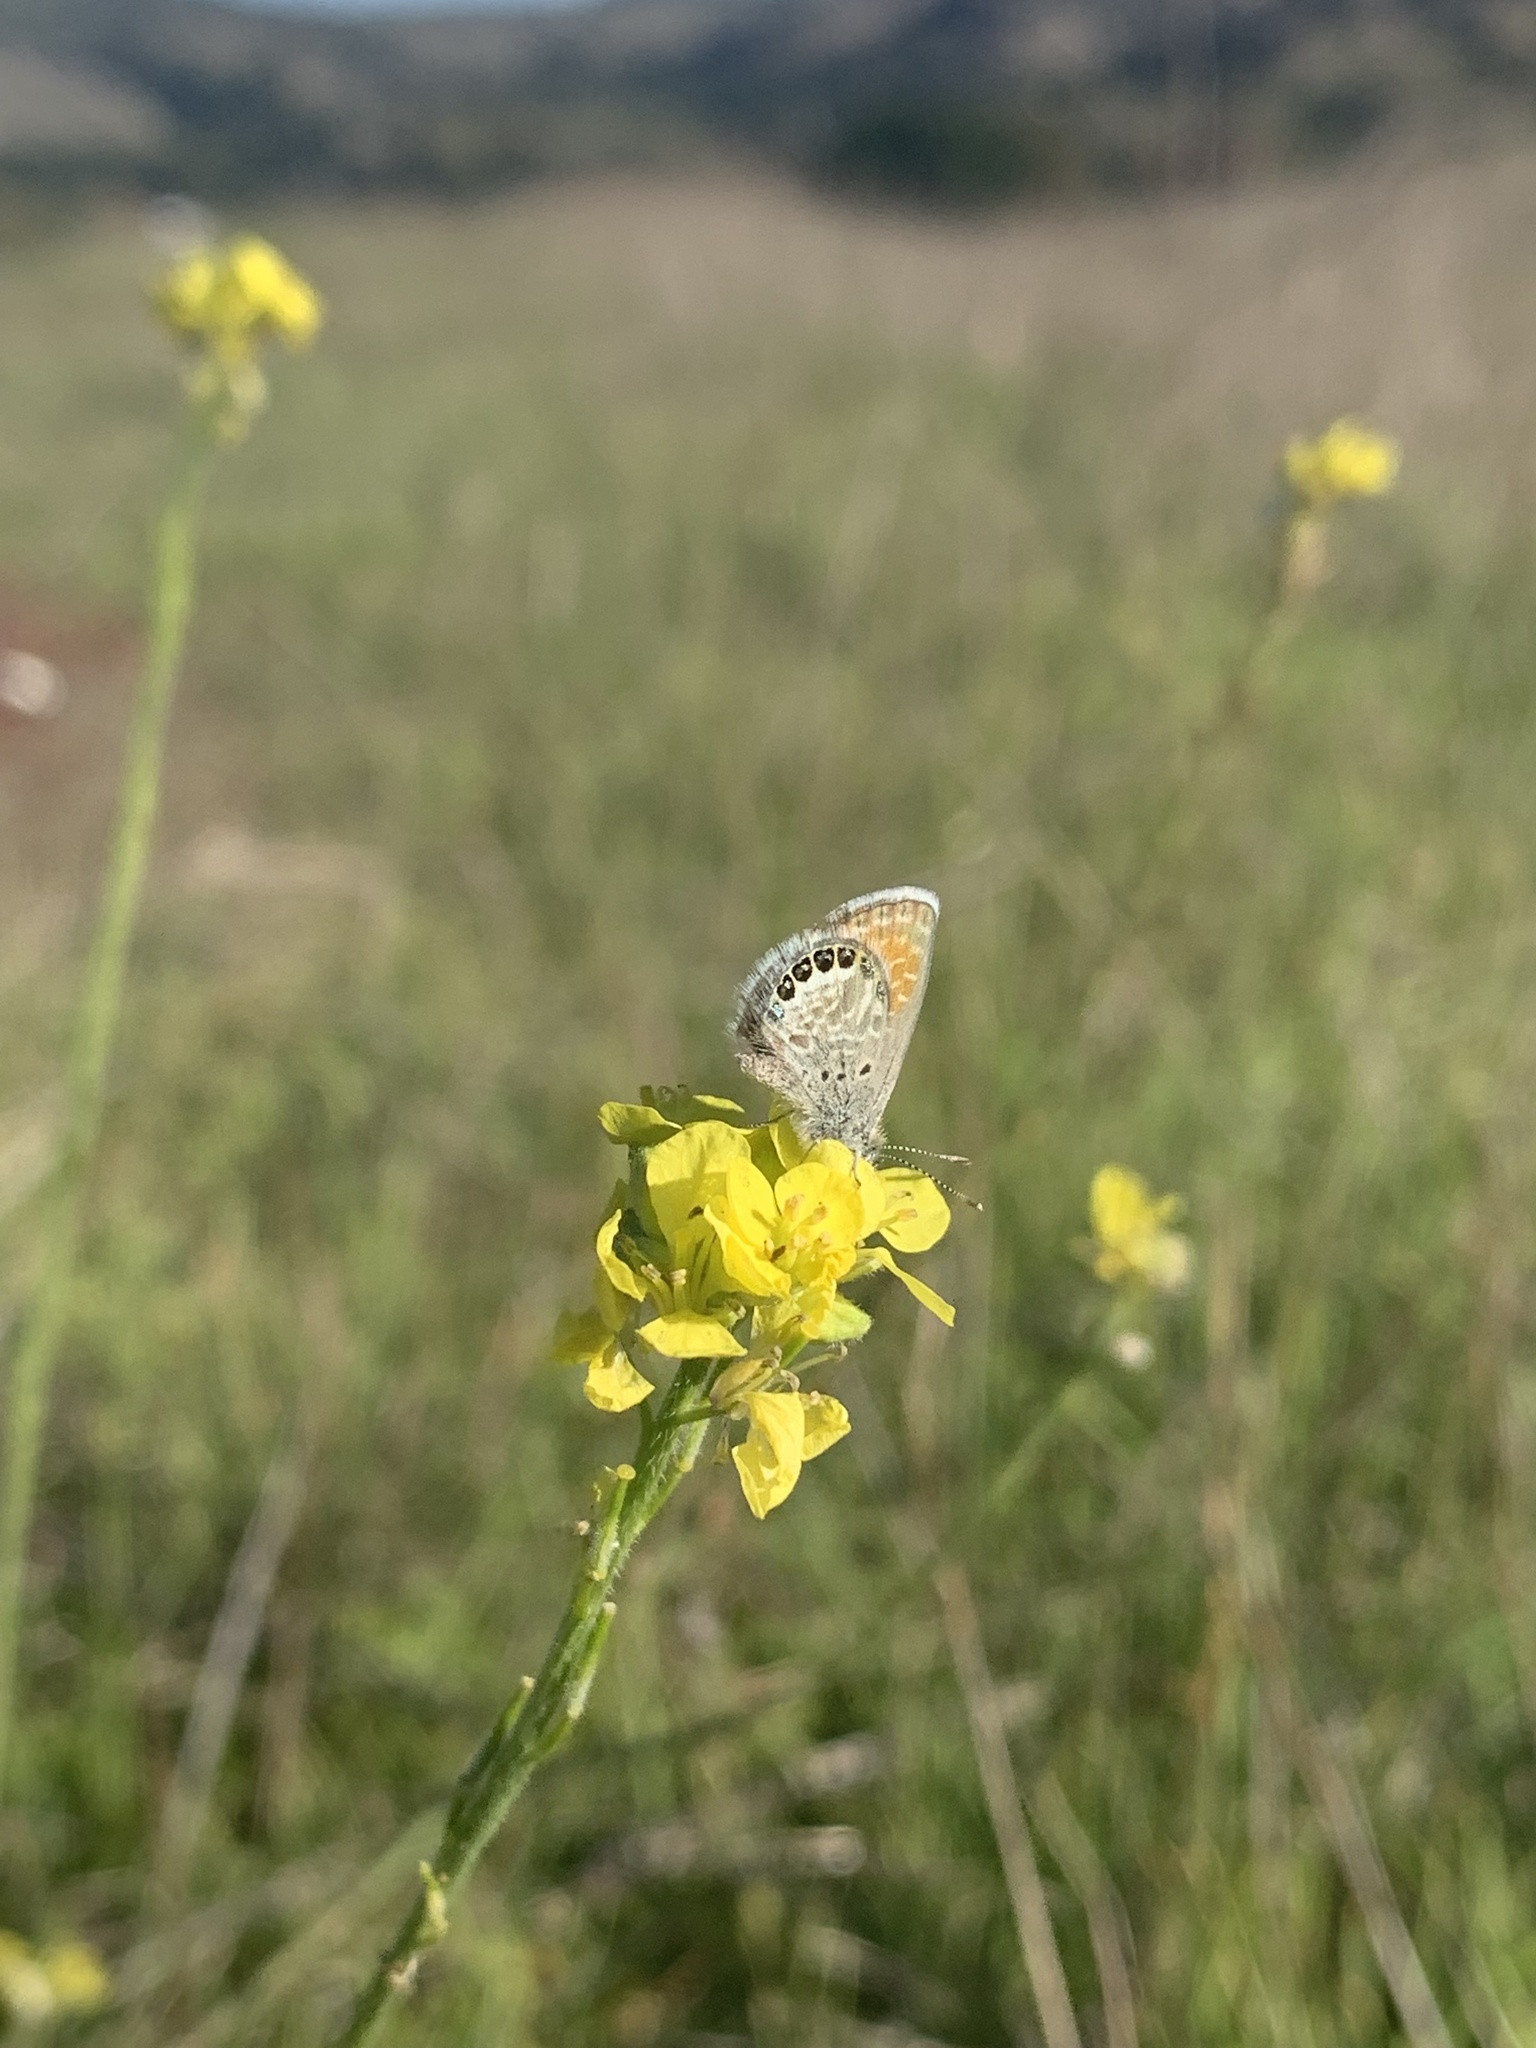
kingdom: Animalia
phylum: Arthropoda
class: Insecta
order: Lepidoptera
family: Lycaenidae
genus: Brephidium
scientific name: Brephidium exilis
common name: Pygmy blue
